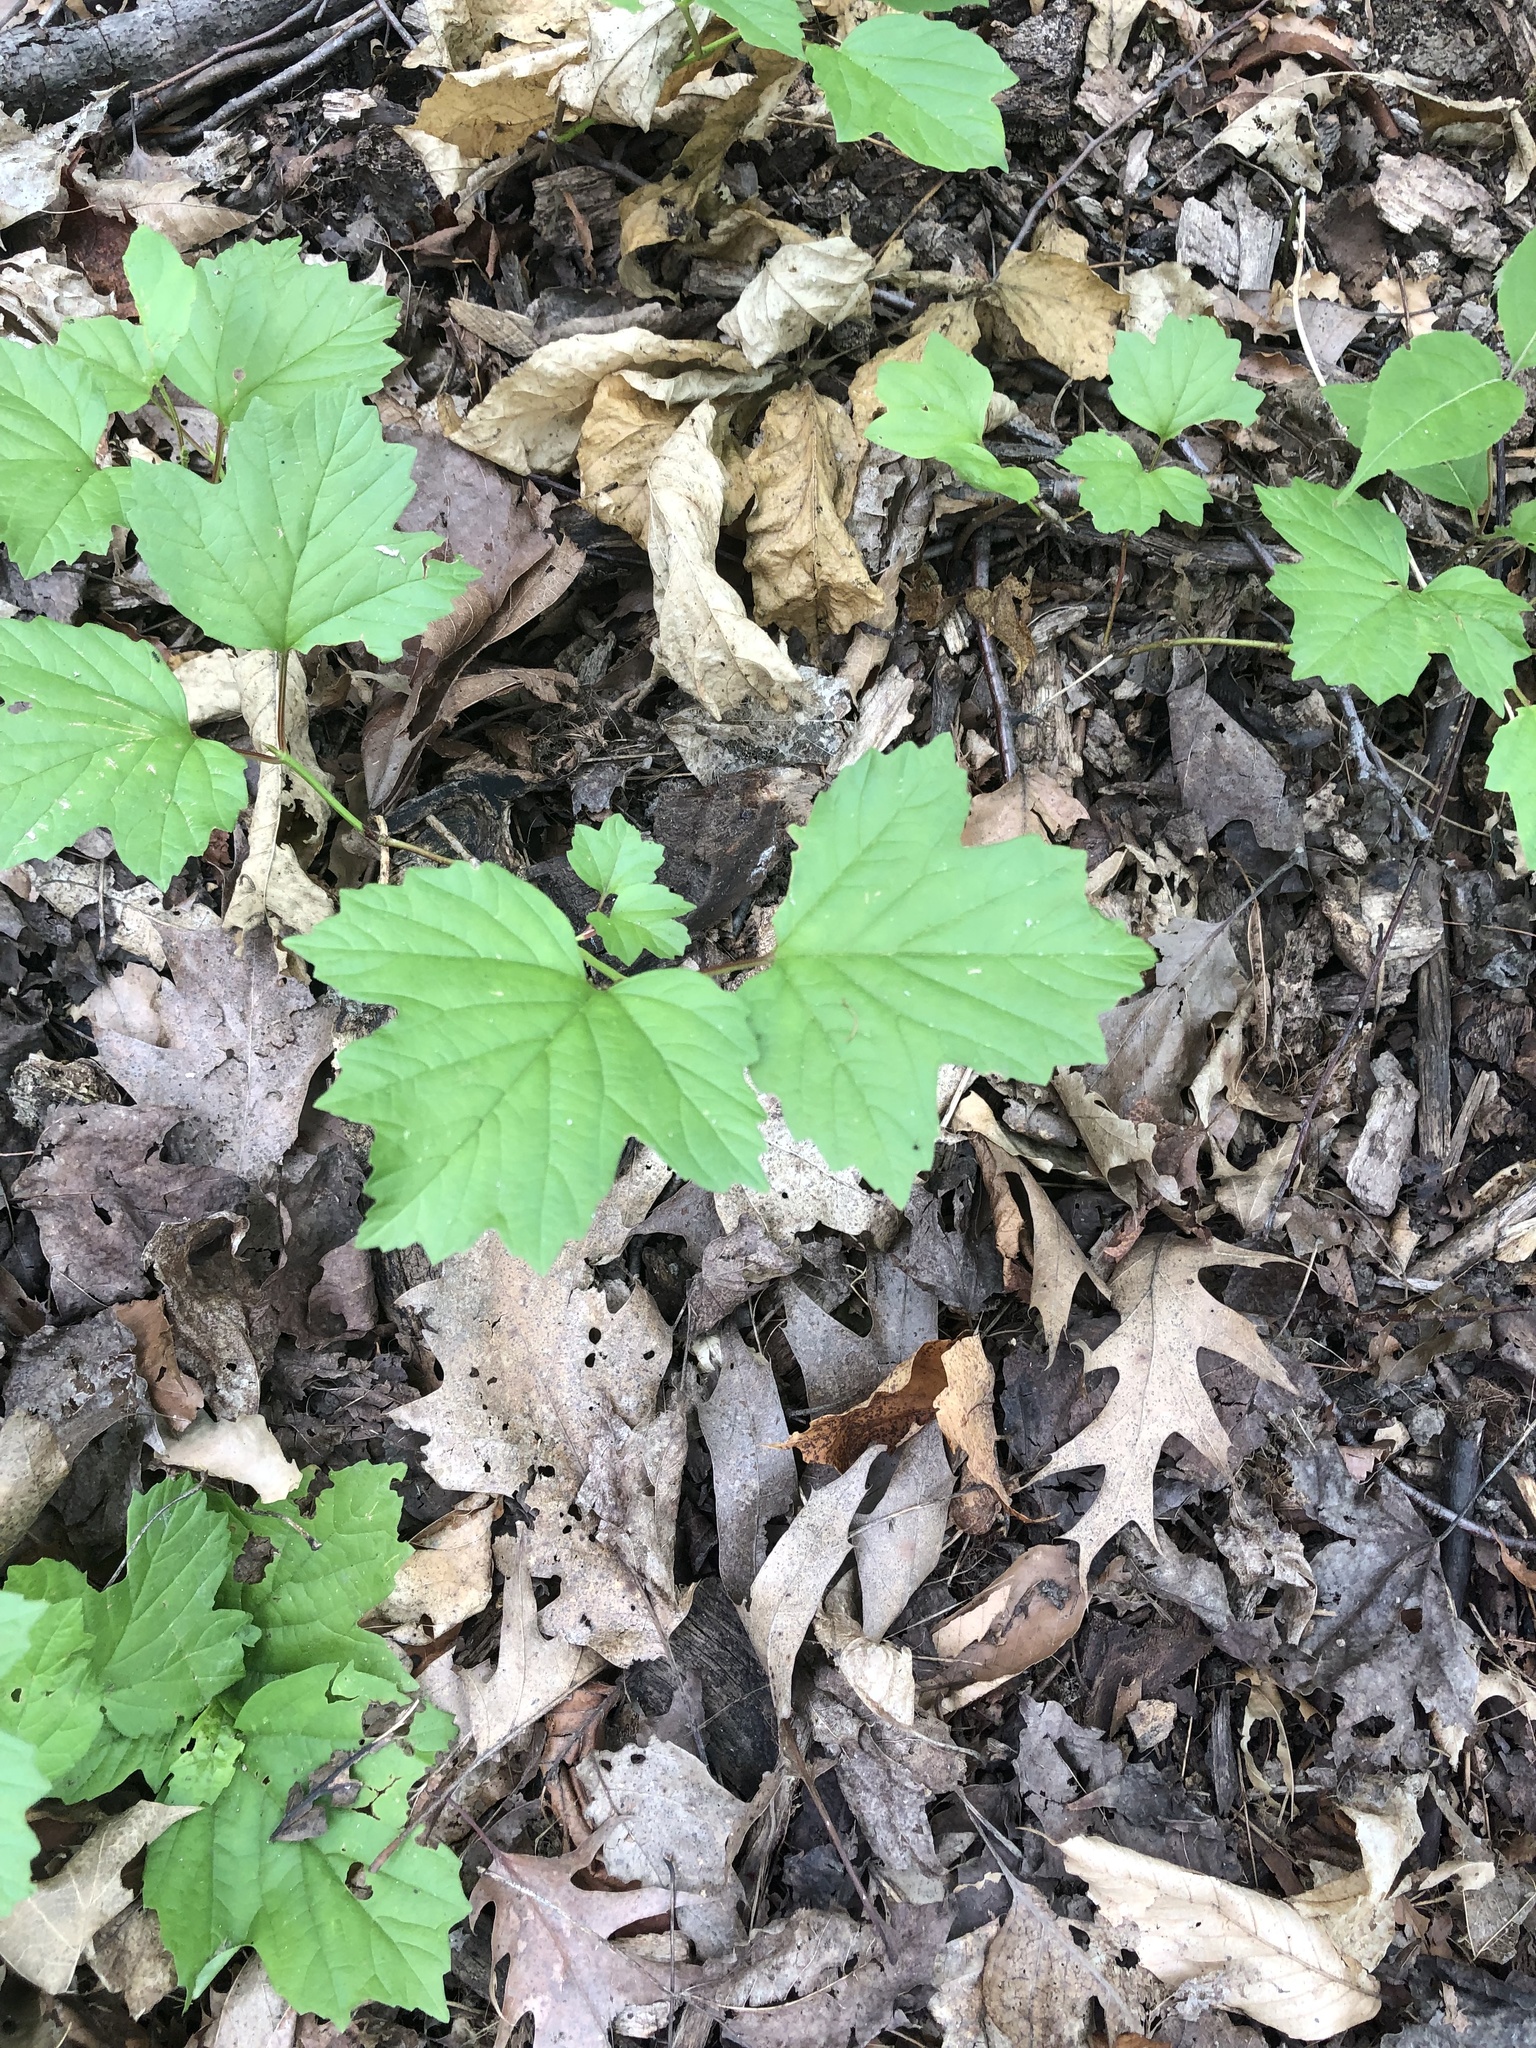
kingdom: Plantae
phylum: Tracheophyta
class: Magnoliopsida
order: Dipsacales
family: Viburnaceae
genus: Viburnum
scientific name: Viburnum opulus
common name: Guelder-rose
